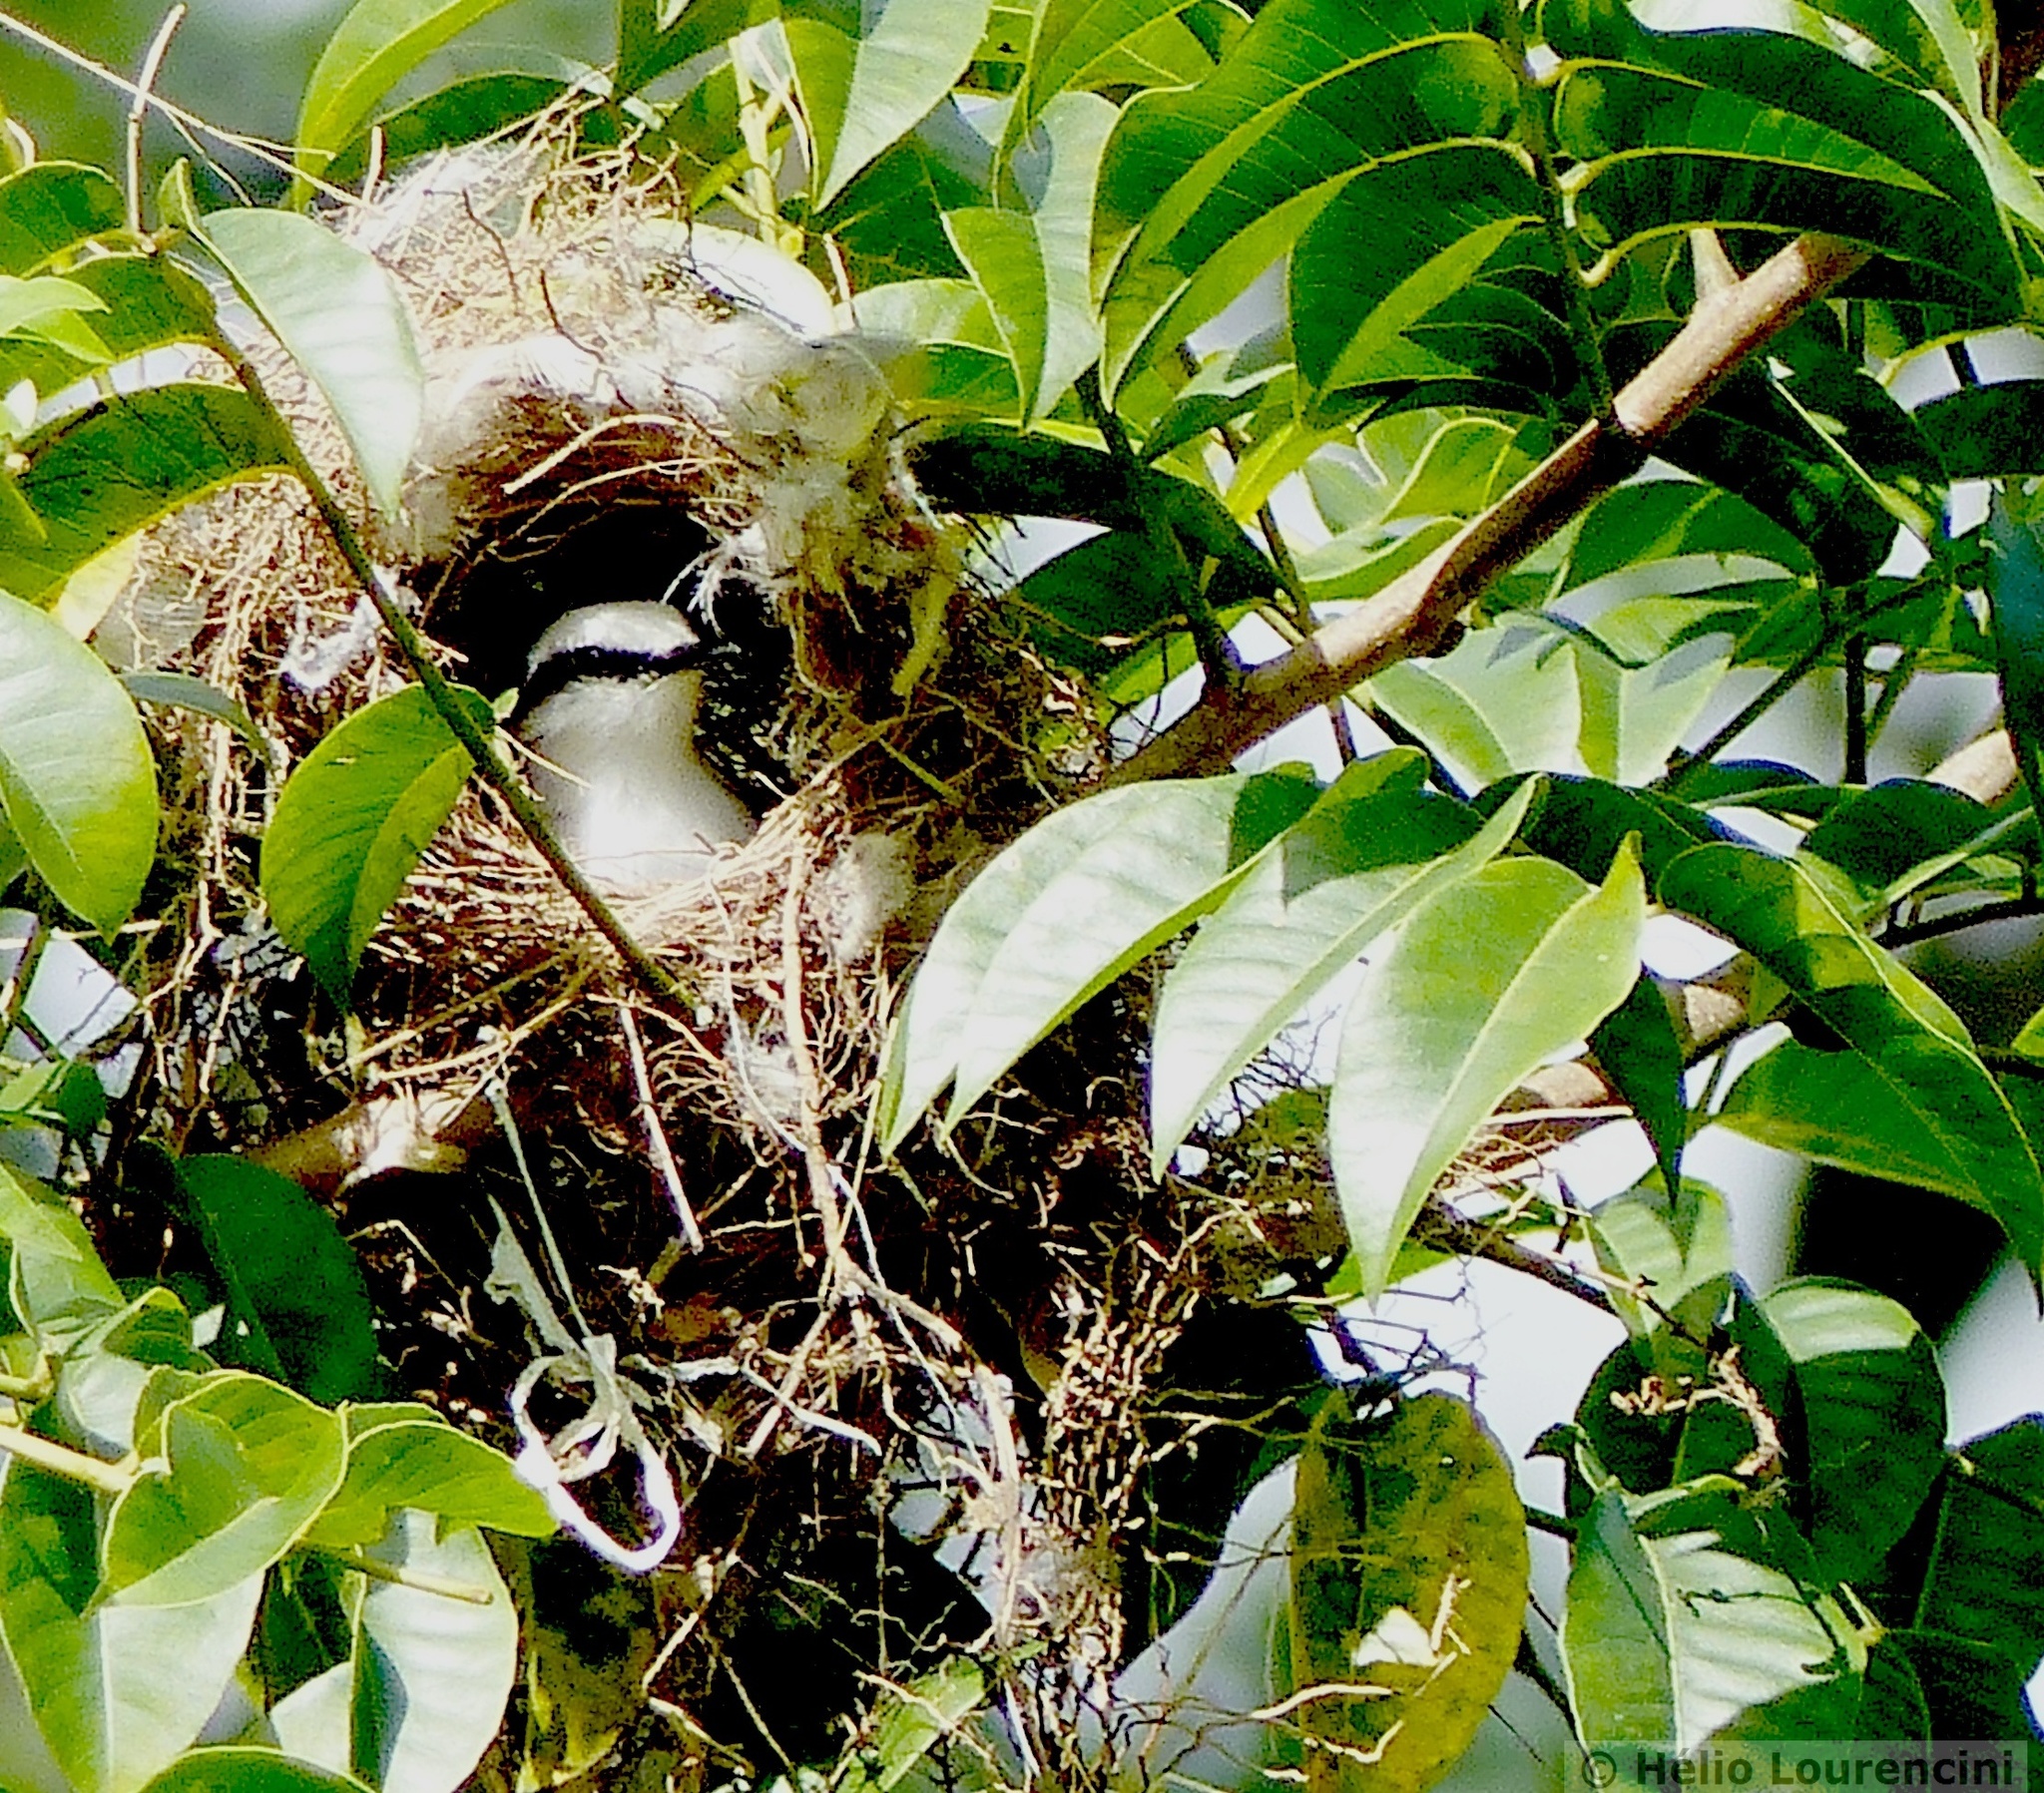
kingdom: Animalia
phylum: Chordata
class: Aves
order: Passeriformes
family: Tyrannidae
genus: Fluvicola
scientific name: Fluvicola nengeta
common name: Masked water tyrant
